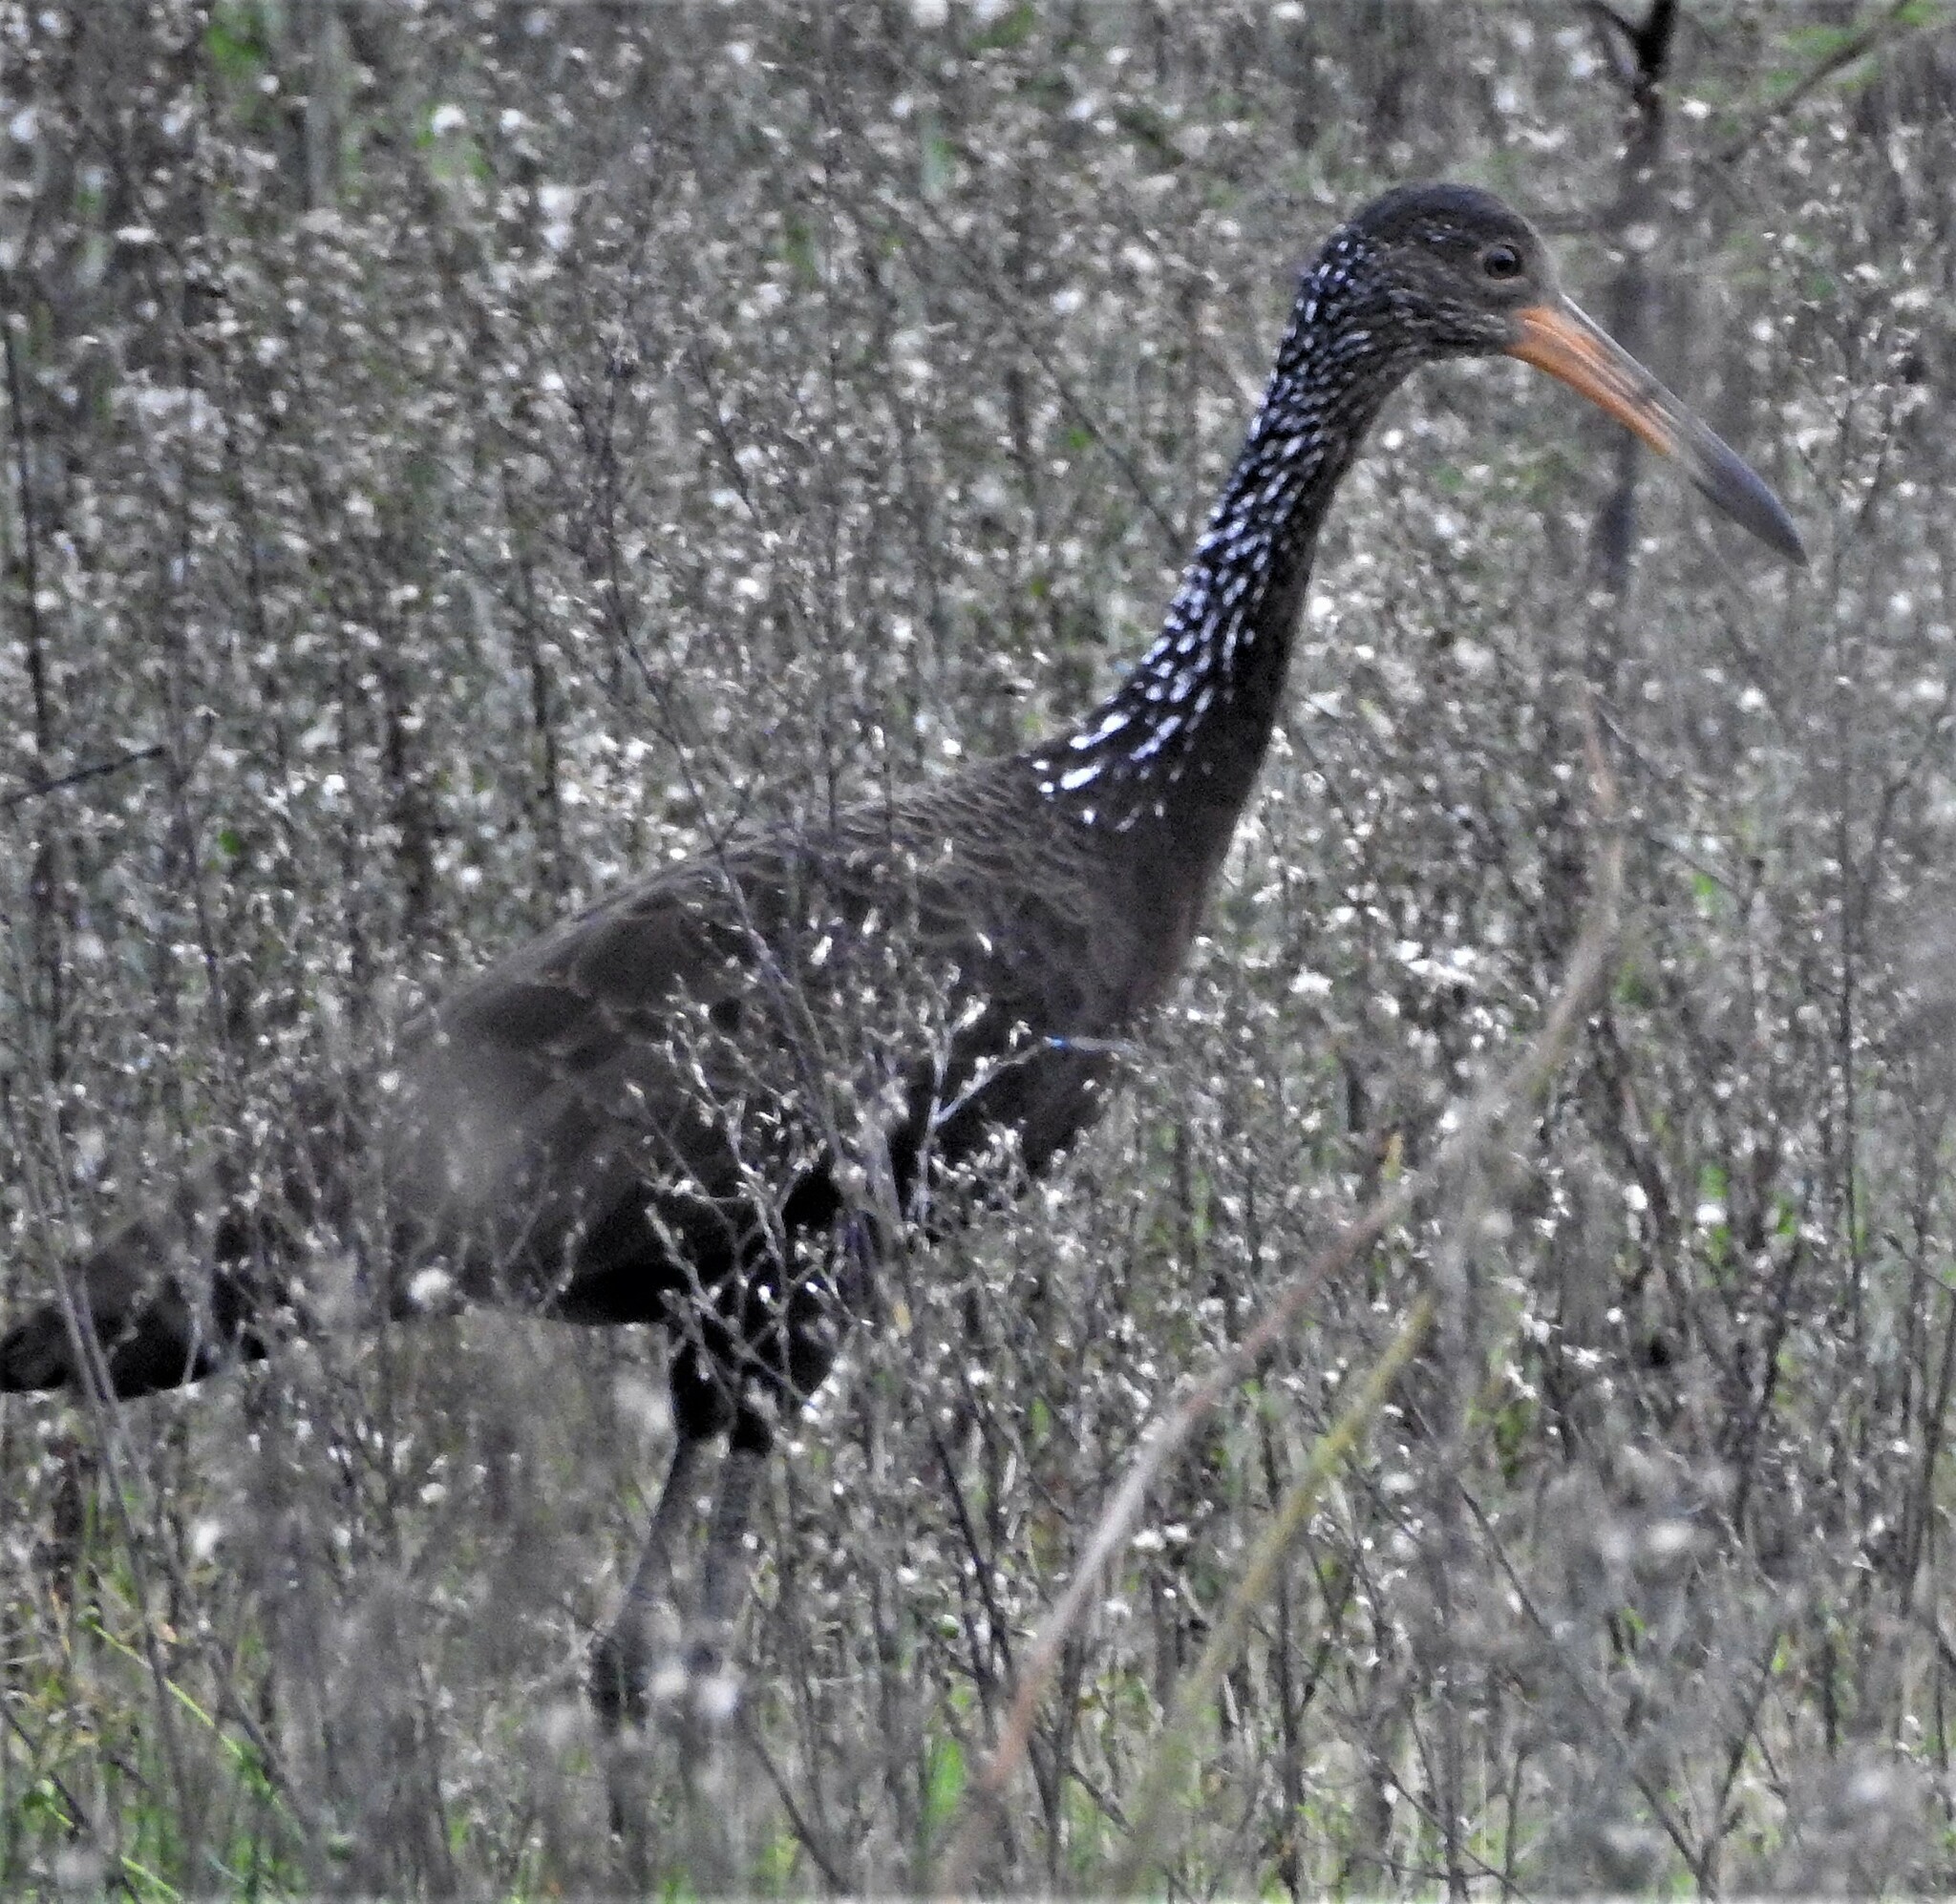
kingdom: Animalia
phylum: Chordata
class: Aves
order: Gruiformes
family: Aramidae
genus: Aramus
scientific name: Aramus guarauna
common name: Limpkin
